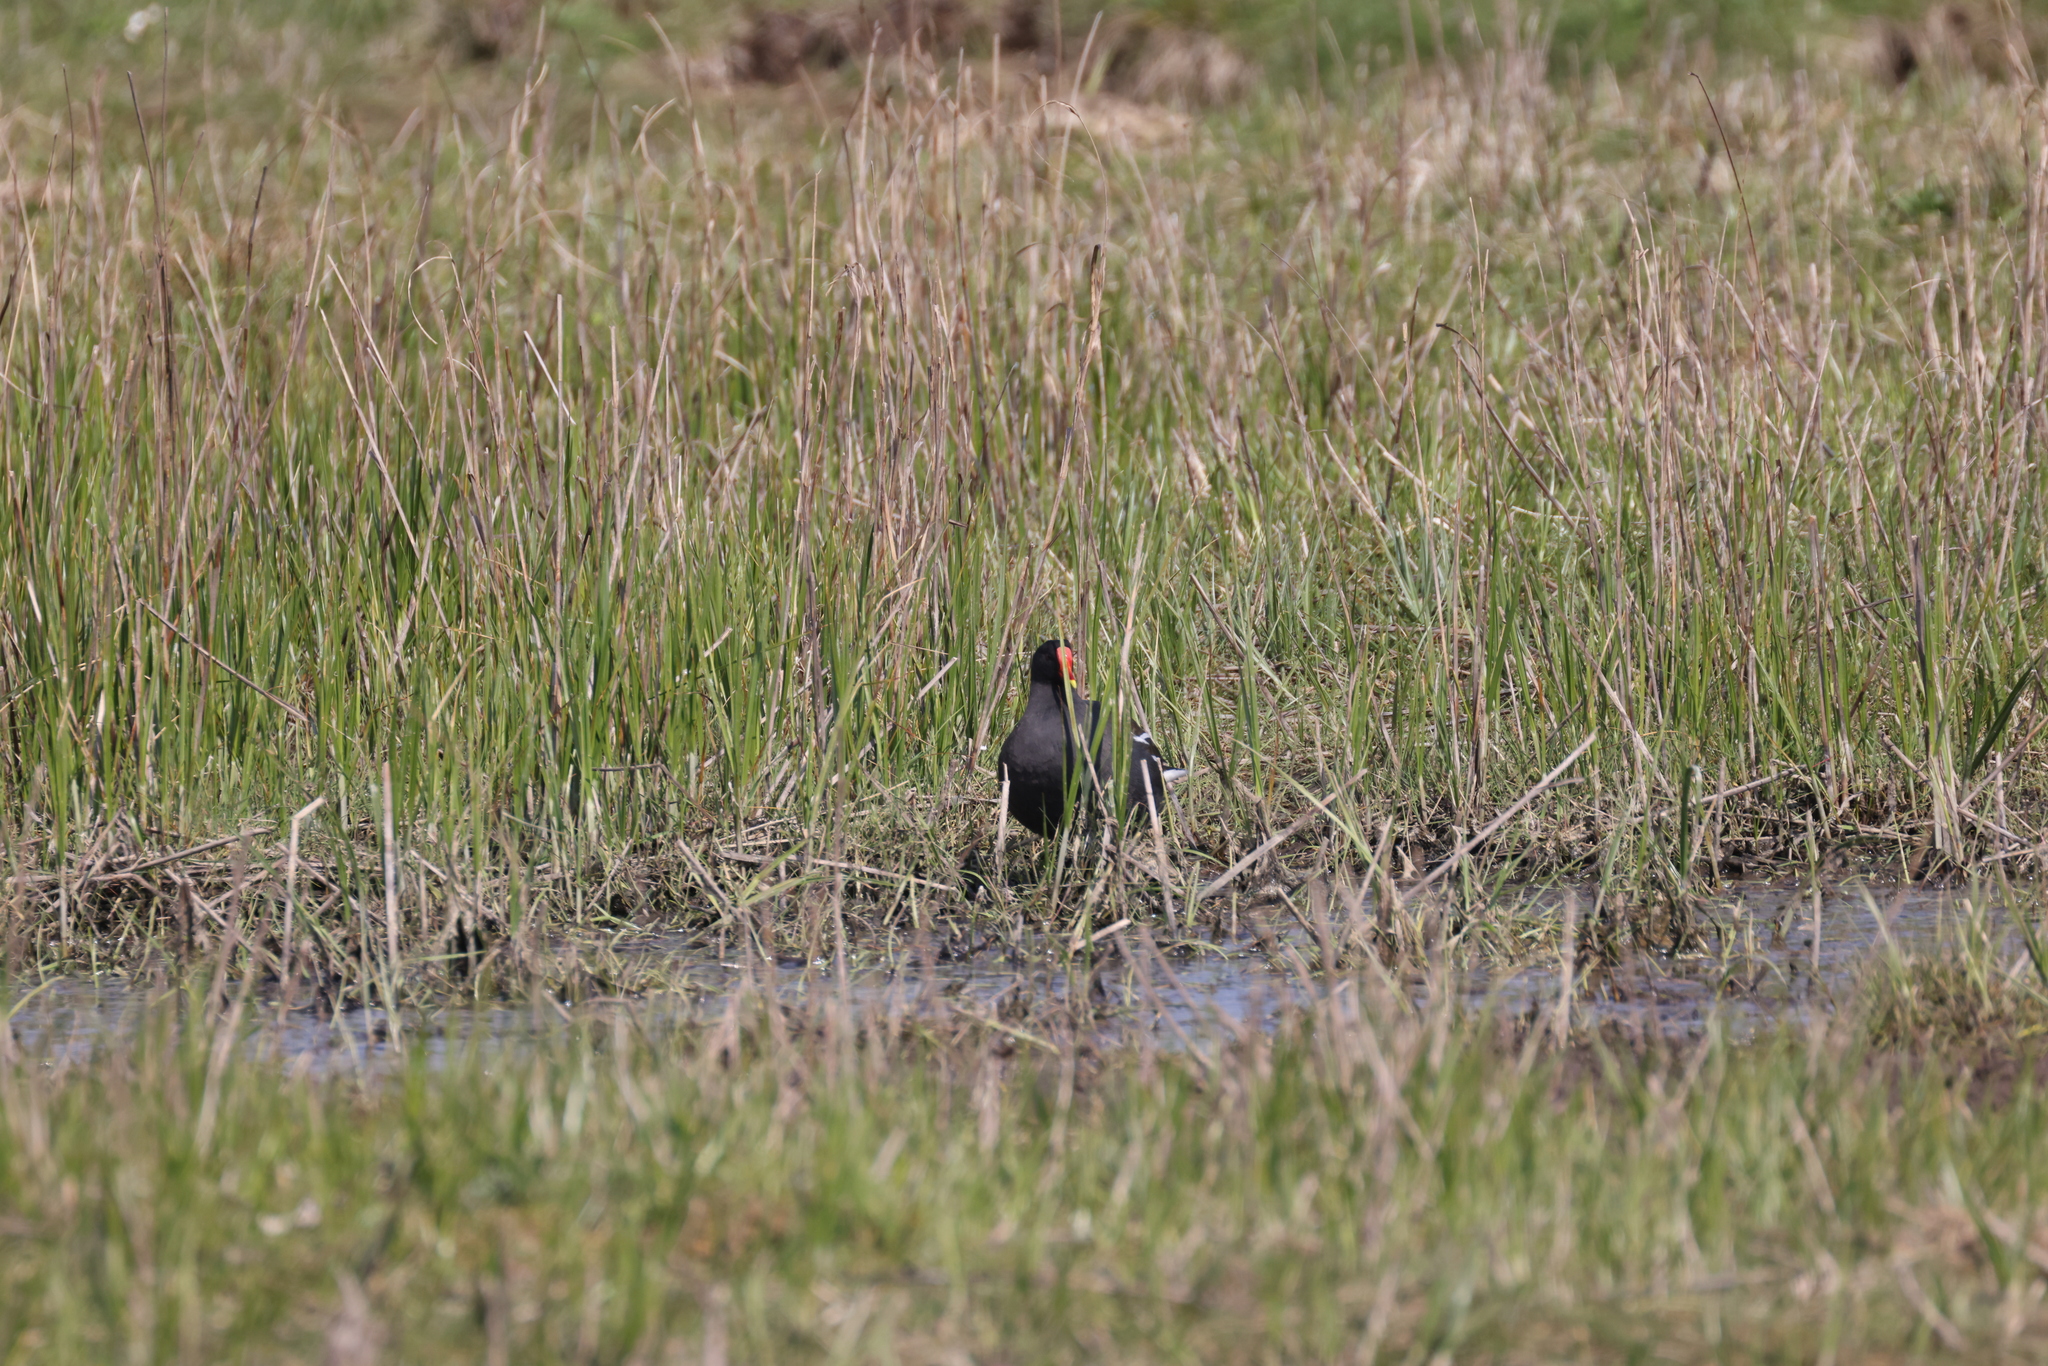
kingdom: Animalia
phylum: Chordata
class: Aves
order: Gruiformes
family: Rallidae
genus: Gallinula
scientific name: Gallinula chloropus
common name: Common moorhen
